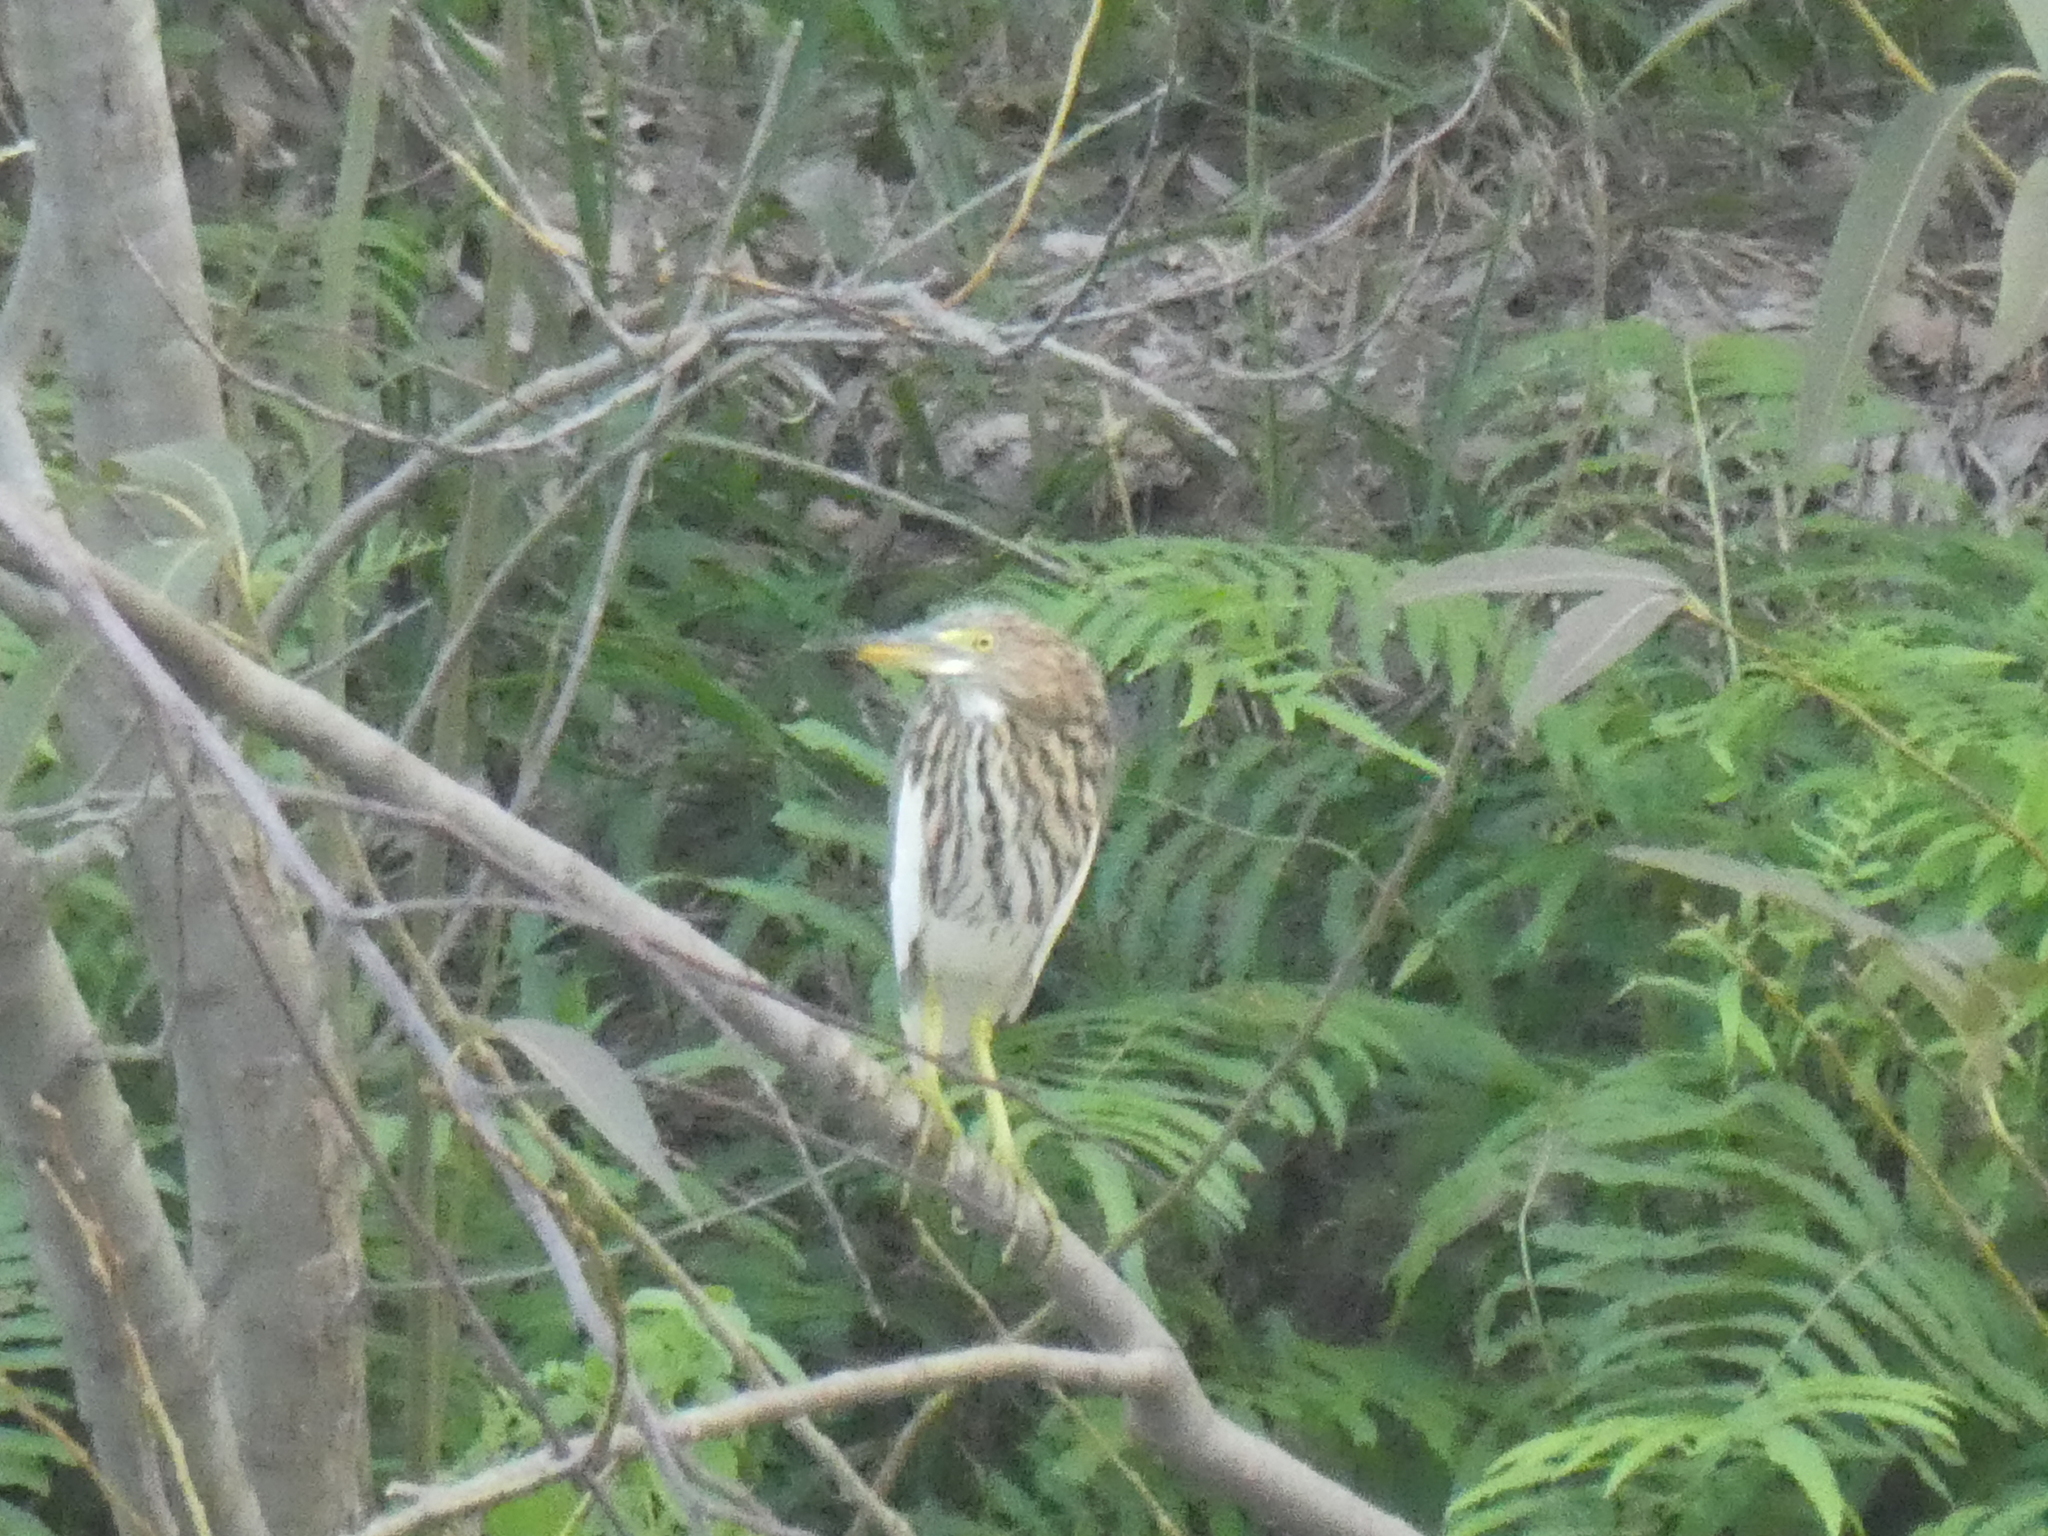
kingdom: Animalia
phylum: Chordata
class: Aves
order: Pelecaniformes
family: Ardeidae
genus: Ardeola
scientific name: Ardeola bacchus
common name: Chinese pond heron
